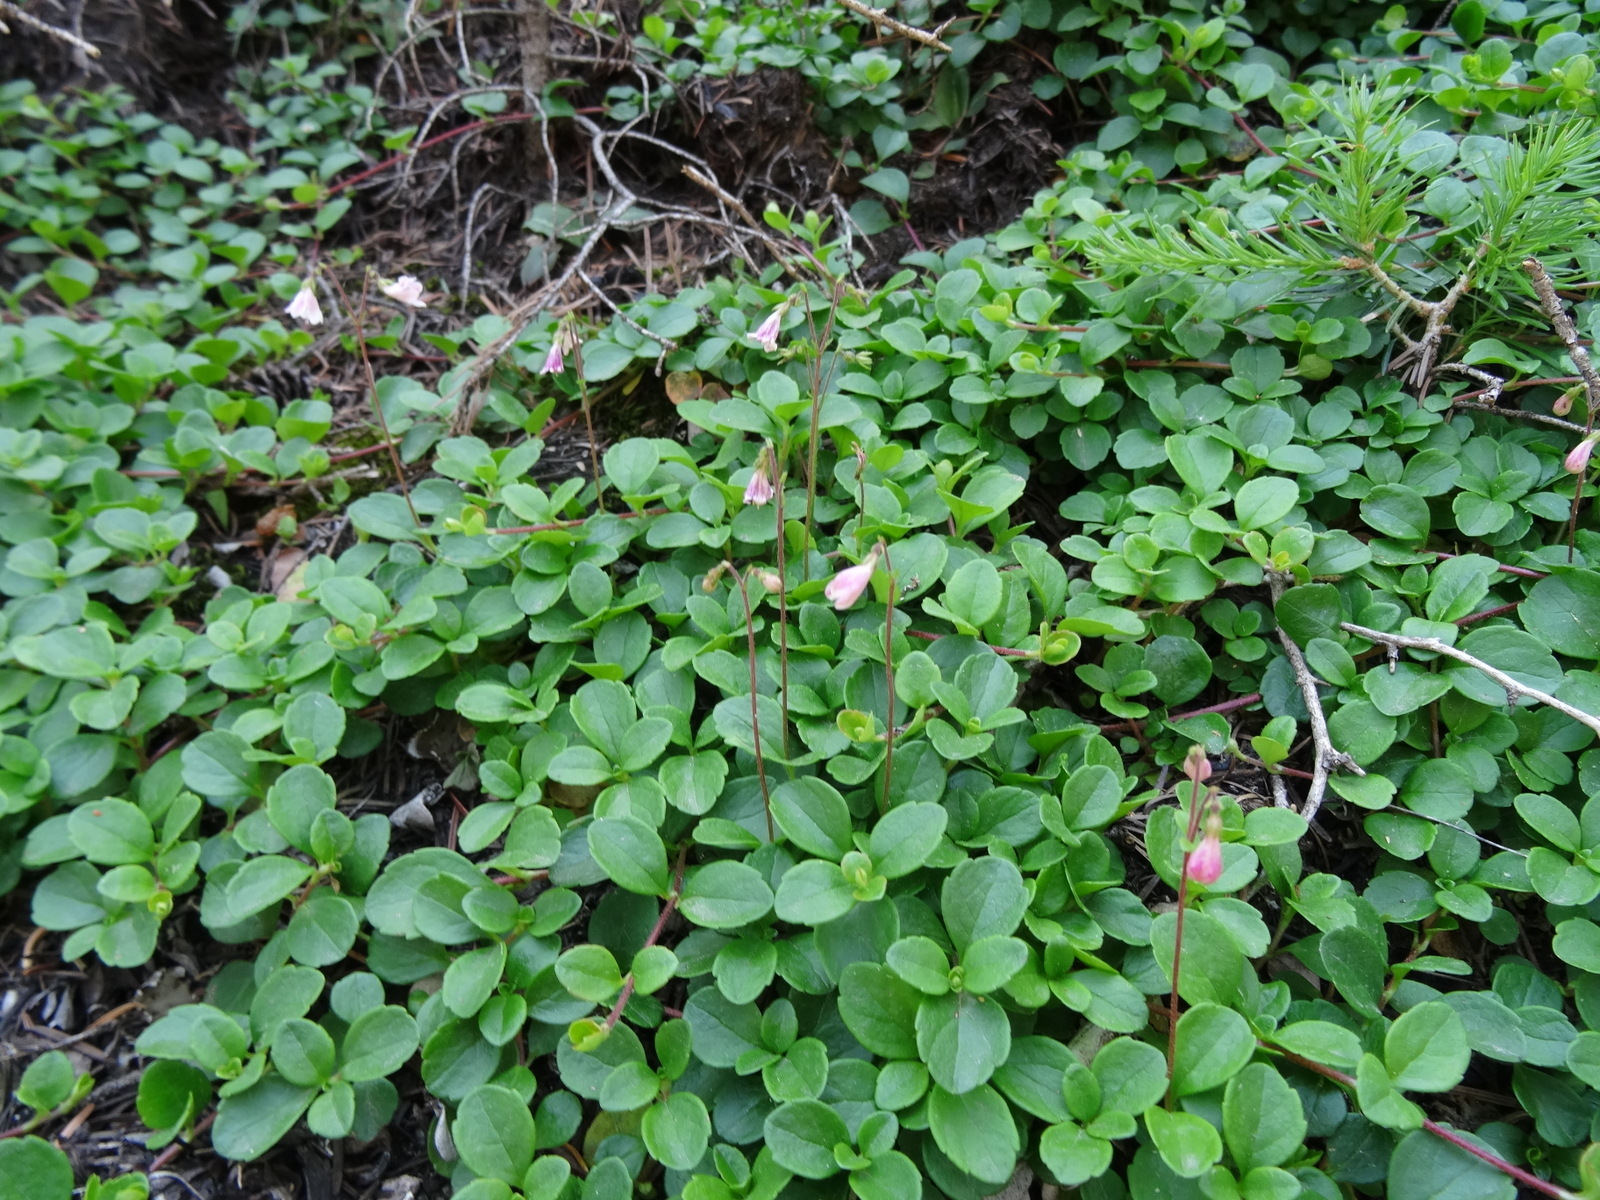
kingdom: Plantae
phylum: Tracheophyta
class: Magnoliopsida
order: Dipsacales
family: Caprifoliaceae
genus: Linnaea
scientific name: Linnaea borealis
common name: Twinflower
